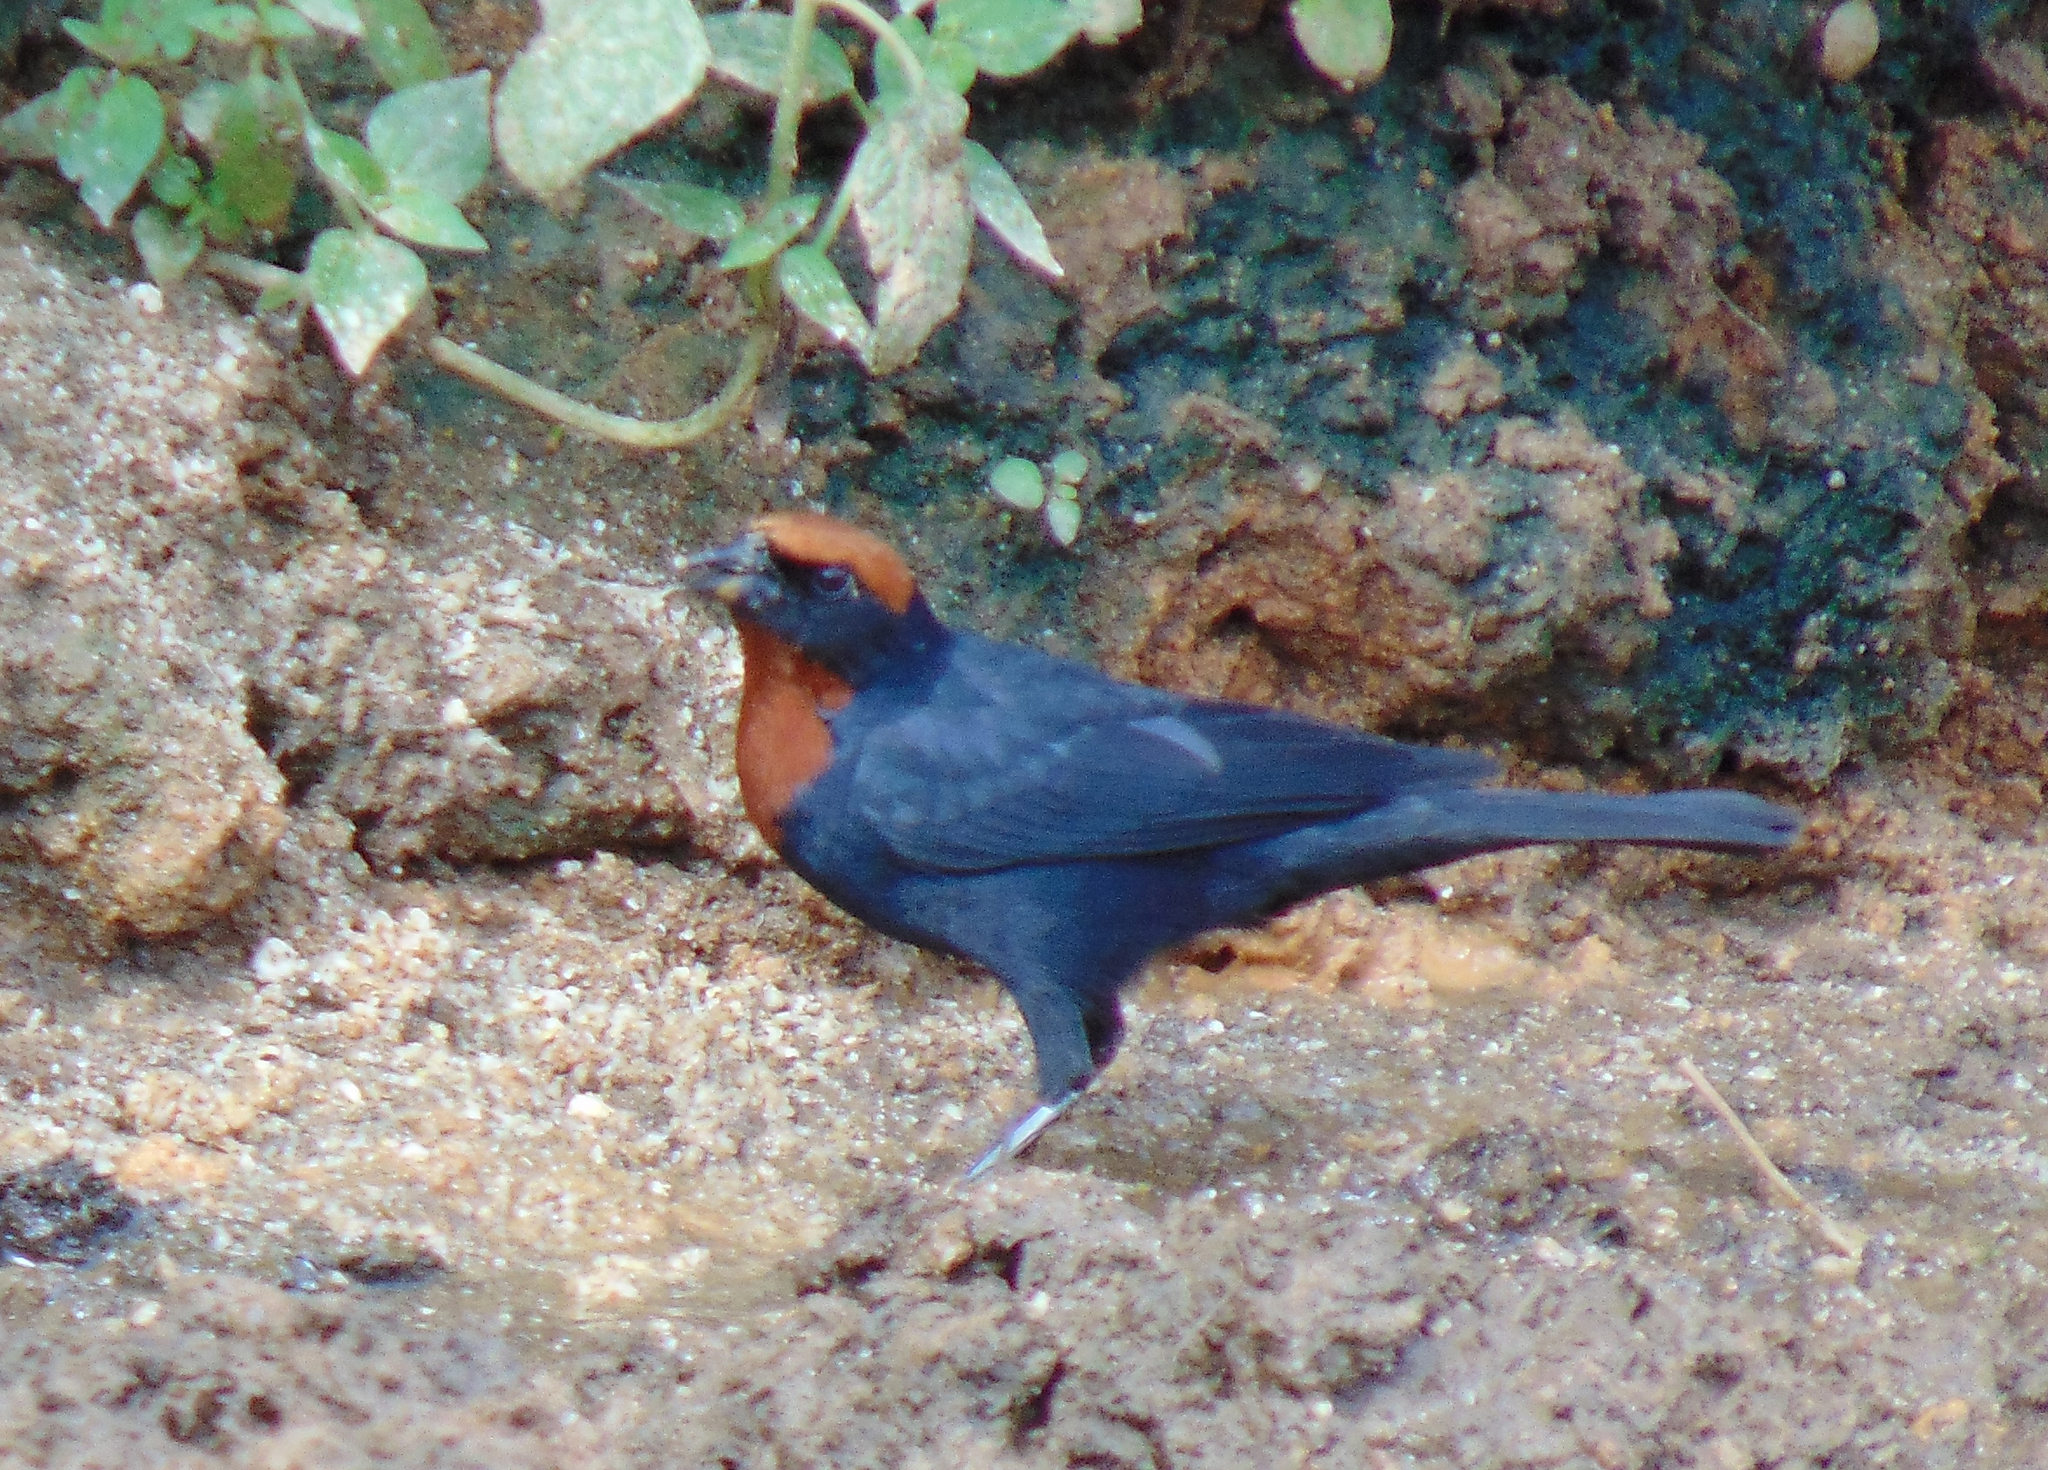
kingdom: Animalia
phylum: Chordata
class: Aves
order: Passeriformes
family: Icteridae
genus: Chrysomus
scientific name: Chrysomus ruficapillus
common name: Chestnut-capped blackbird
